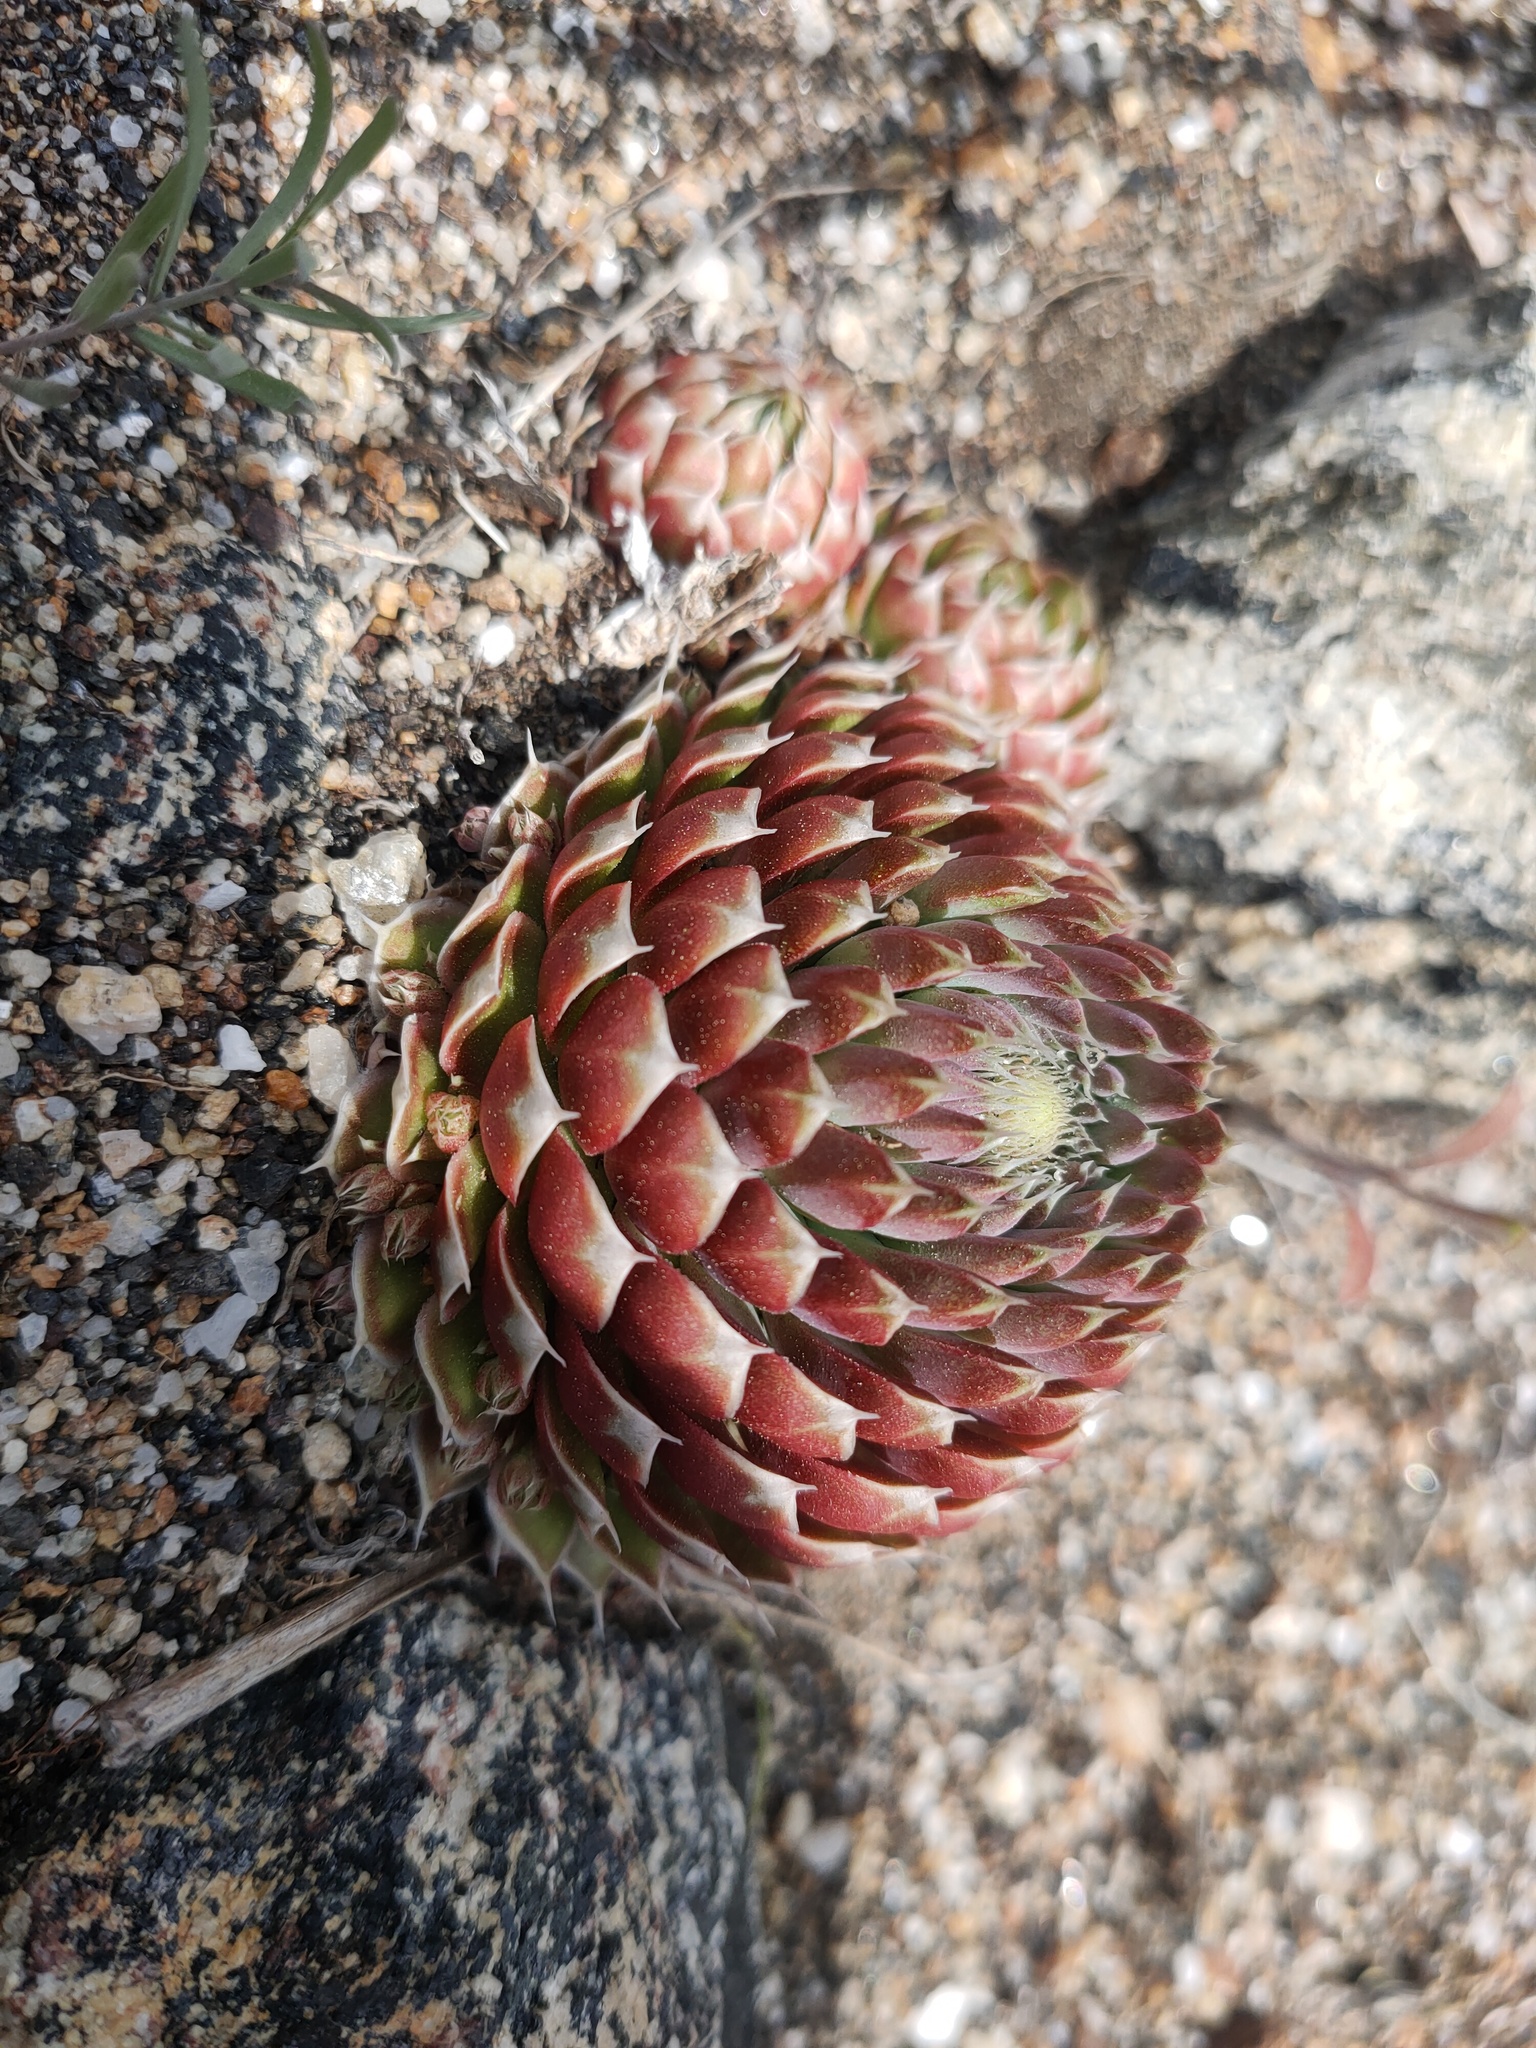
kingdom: Plantae
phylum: Tracheophyta
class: Magnoliopsida
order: Saxifragales
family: Crassulaceae
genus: Orostachys
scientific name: Orostachys spinosa
